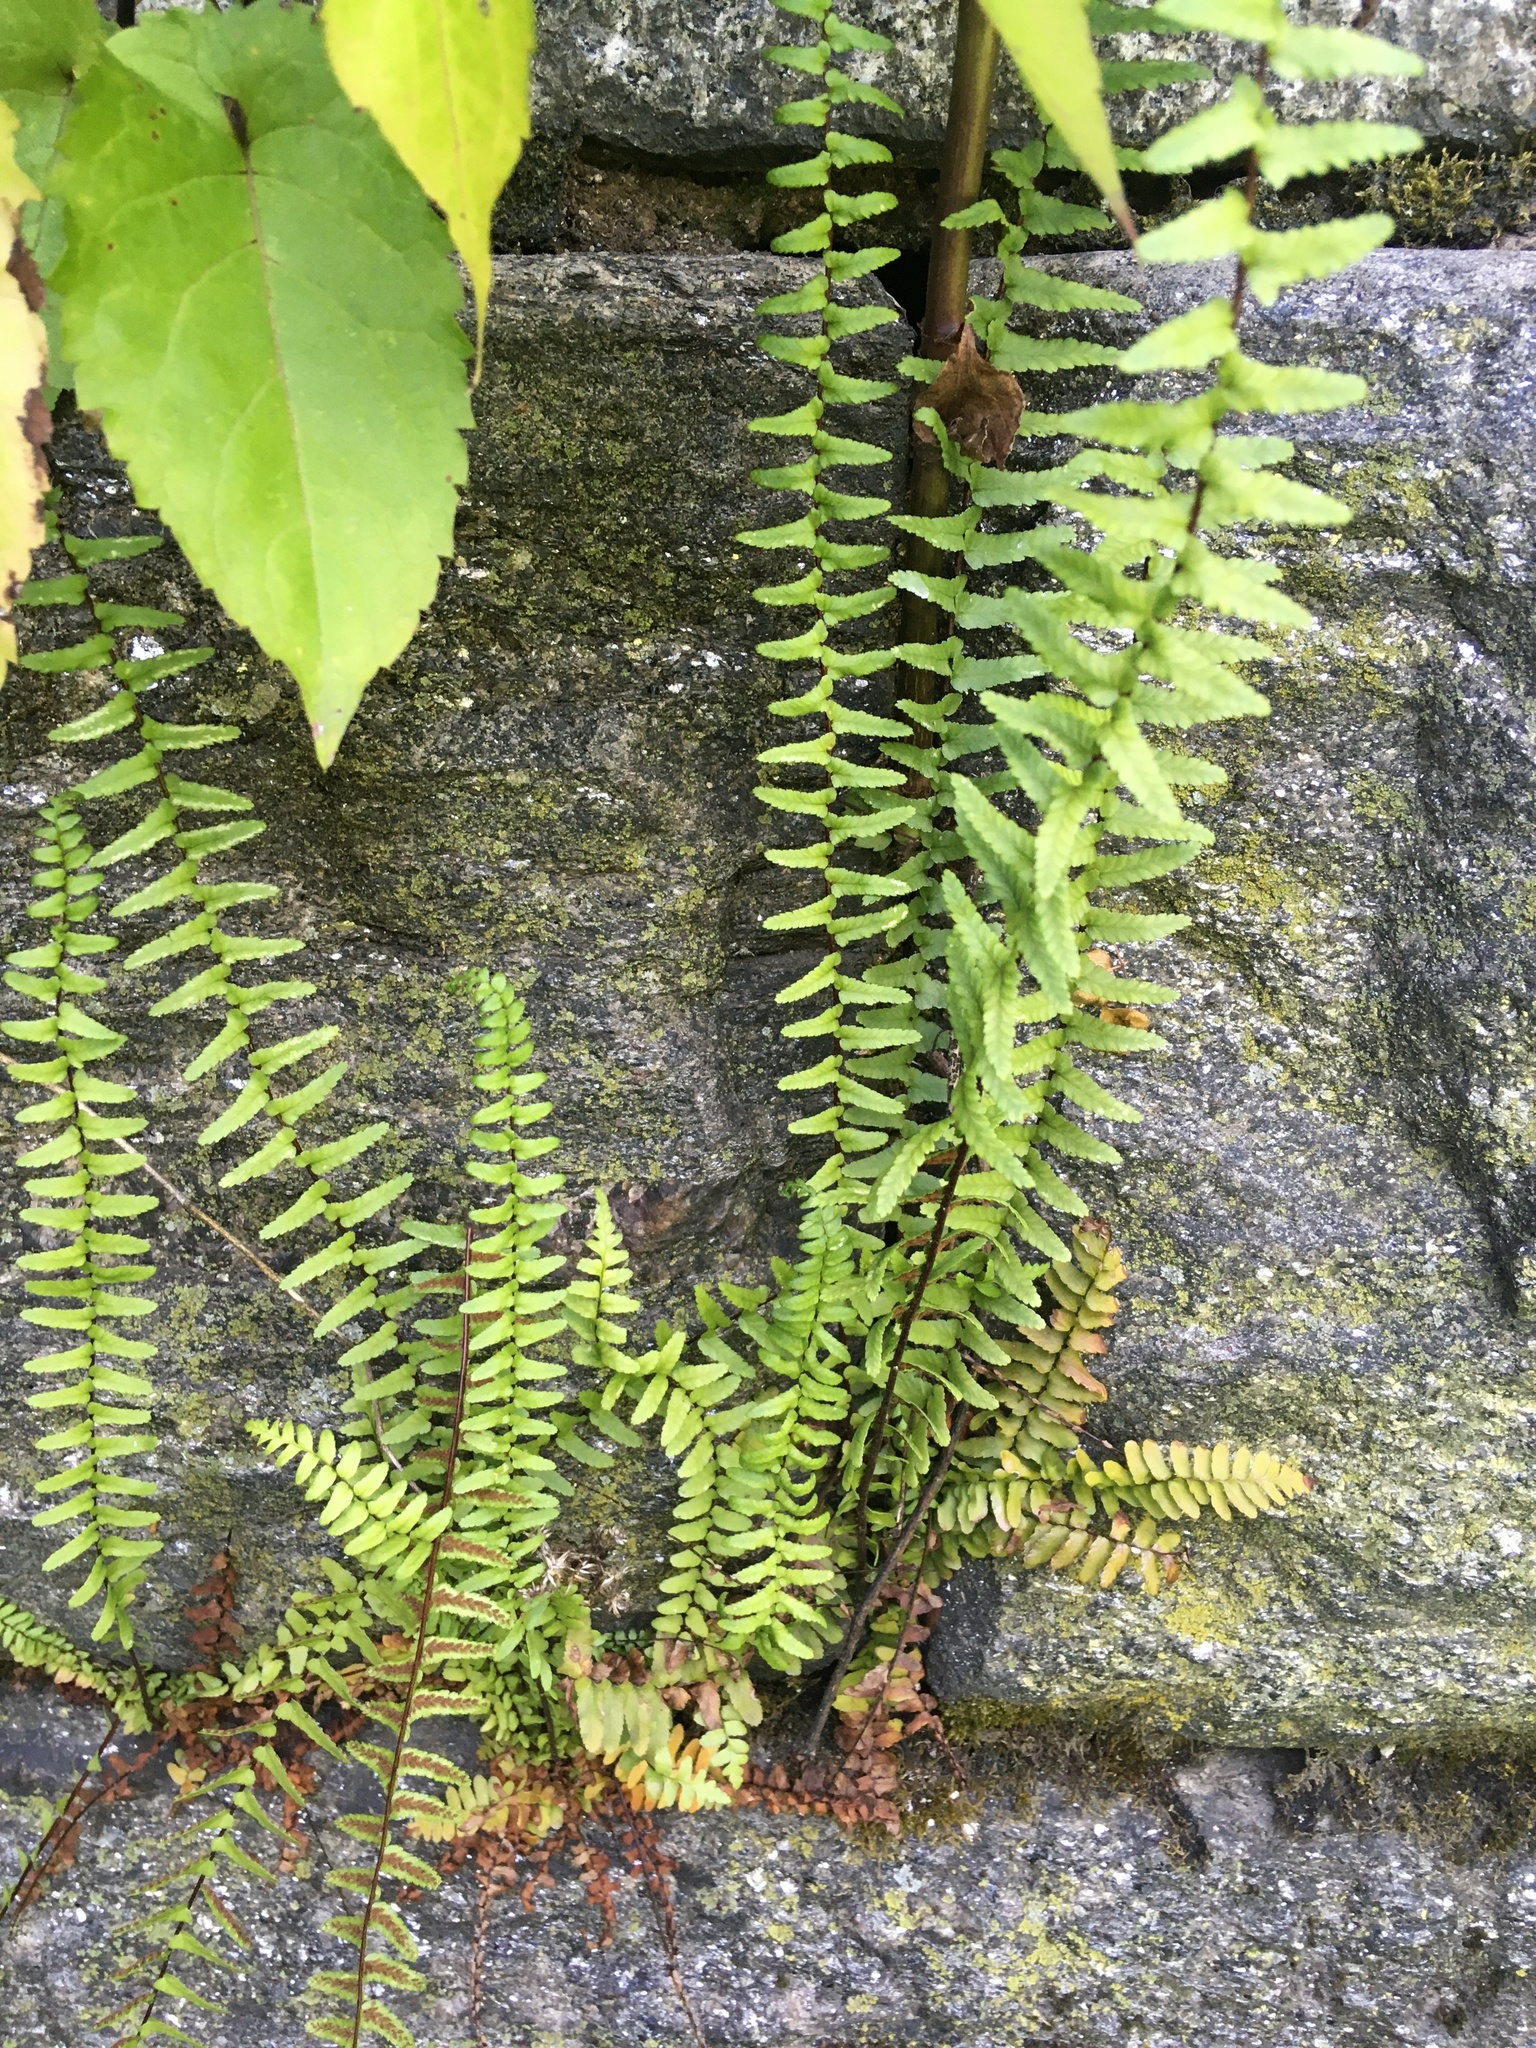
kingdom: Plantae
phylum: Tracheophyta
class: Polypodiopsida
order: Polypodiales
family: Aspleniaceae
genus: Asplenium
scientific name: Asplenium platyneuron
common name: Ebony spleenwort
